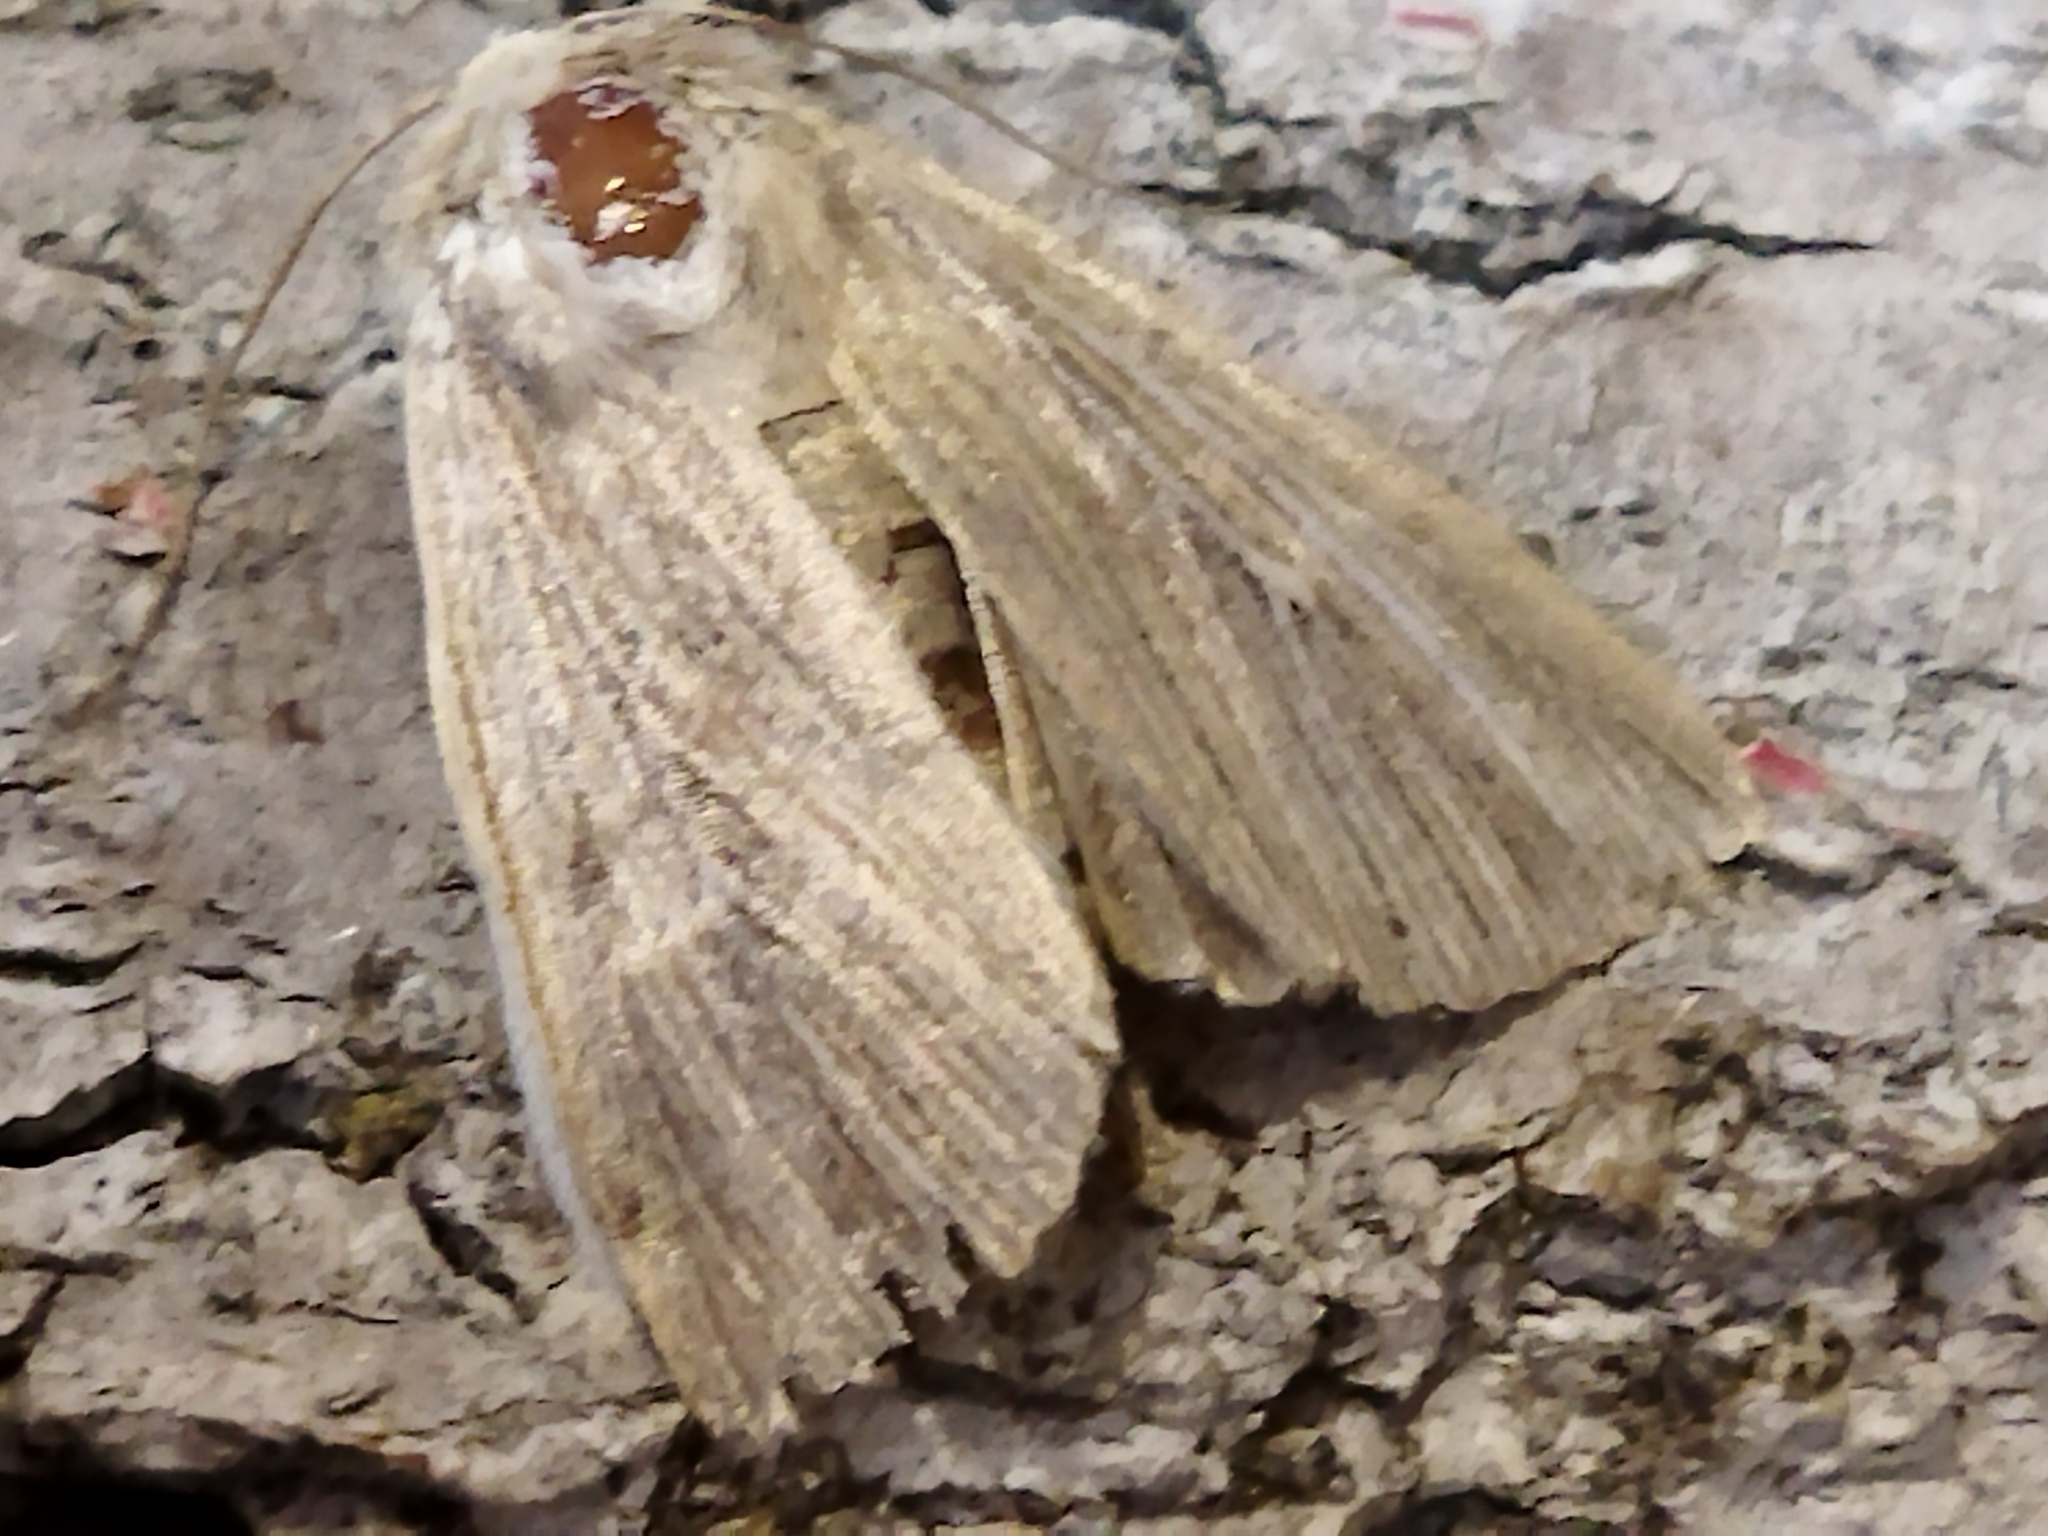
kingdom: Animalia
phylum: Arthropoda
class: Insecta
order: Lepidoptera
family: Noctuidae
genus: Mythimna
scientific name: Mythimna congrua
